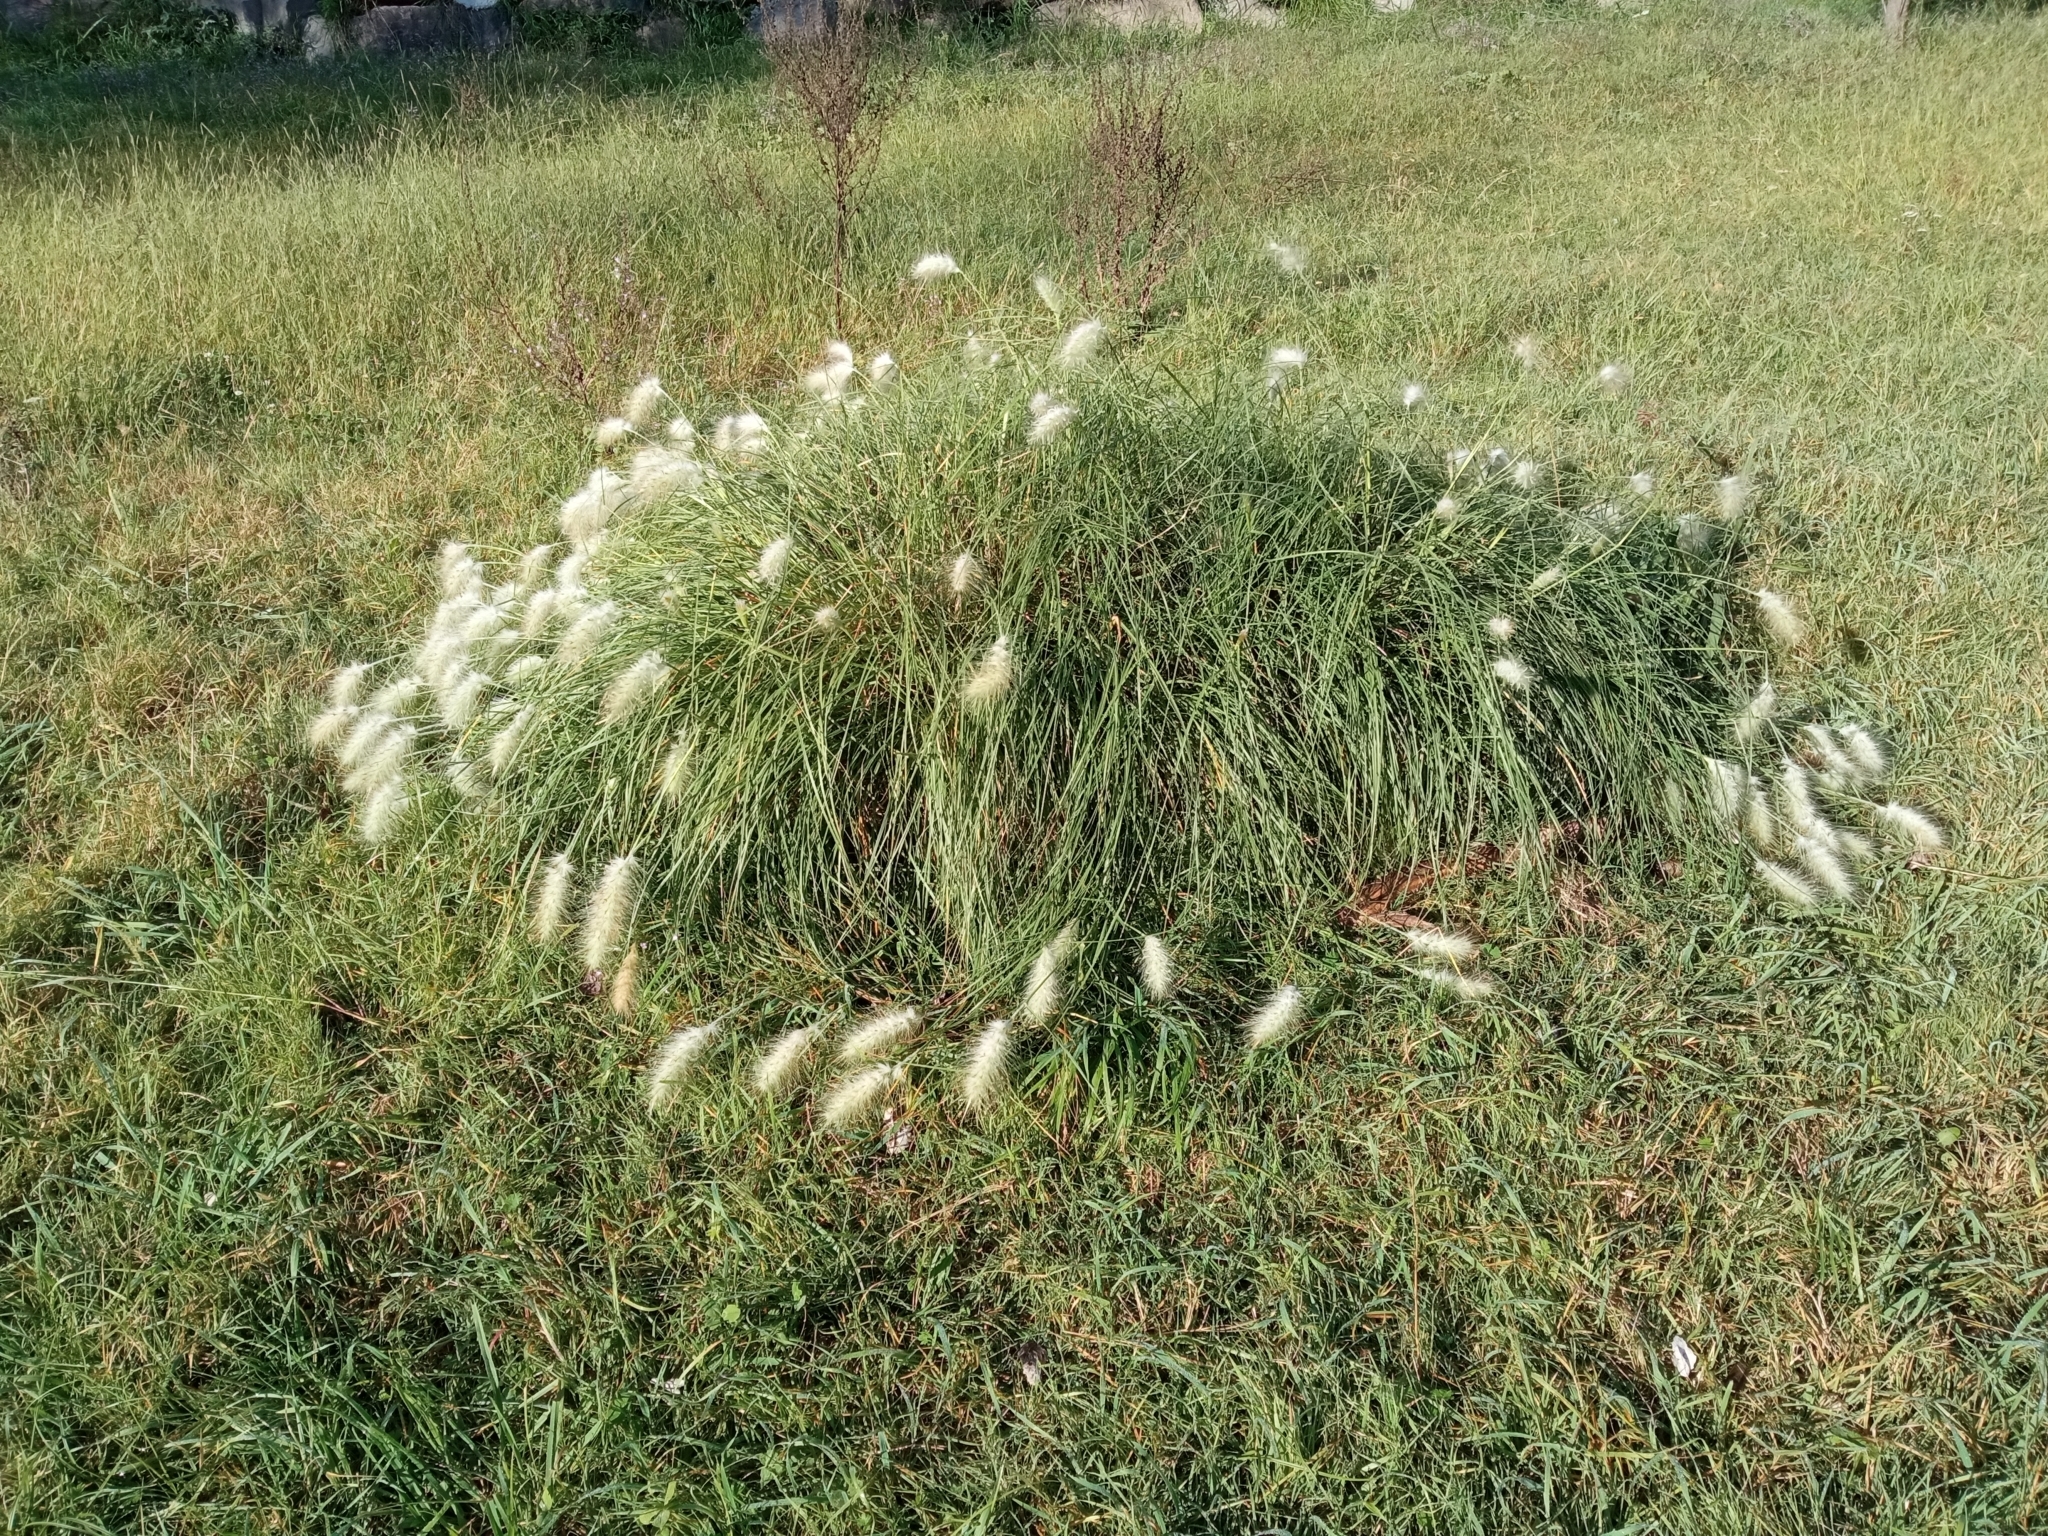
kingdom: Plantae
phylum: Tracheophyta
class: Liliopsida
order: Poales
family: Poaceae
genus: Cenchrus
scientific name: Cenchrus longisetus
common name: Feathertop
